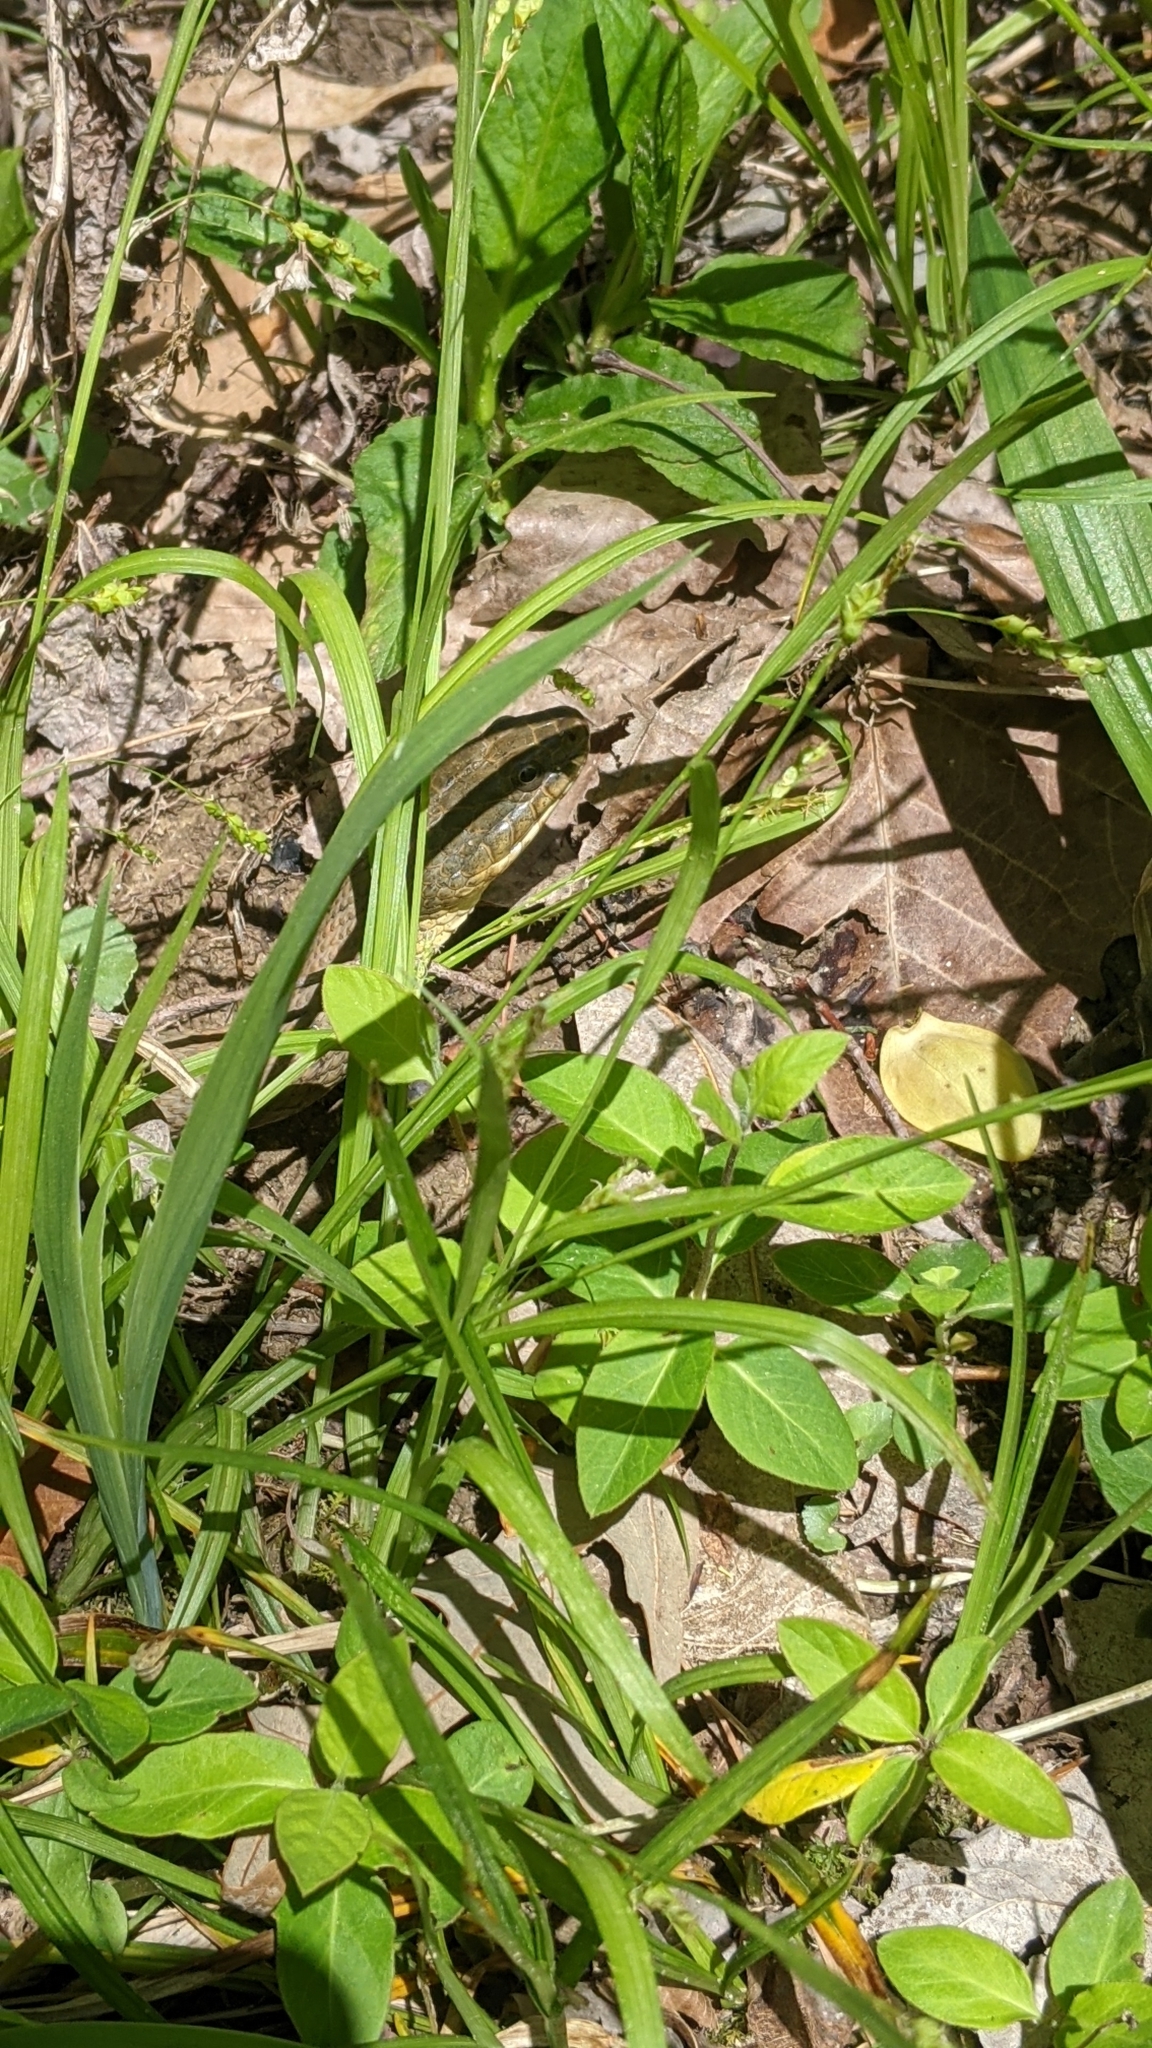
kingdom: Animalia
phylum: Chordata
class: Squamata
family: Colubridae
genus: Nerodia
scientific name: Nerodia sipedon
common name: Northern water snake
